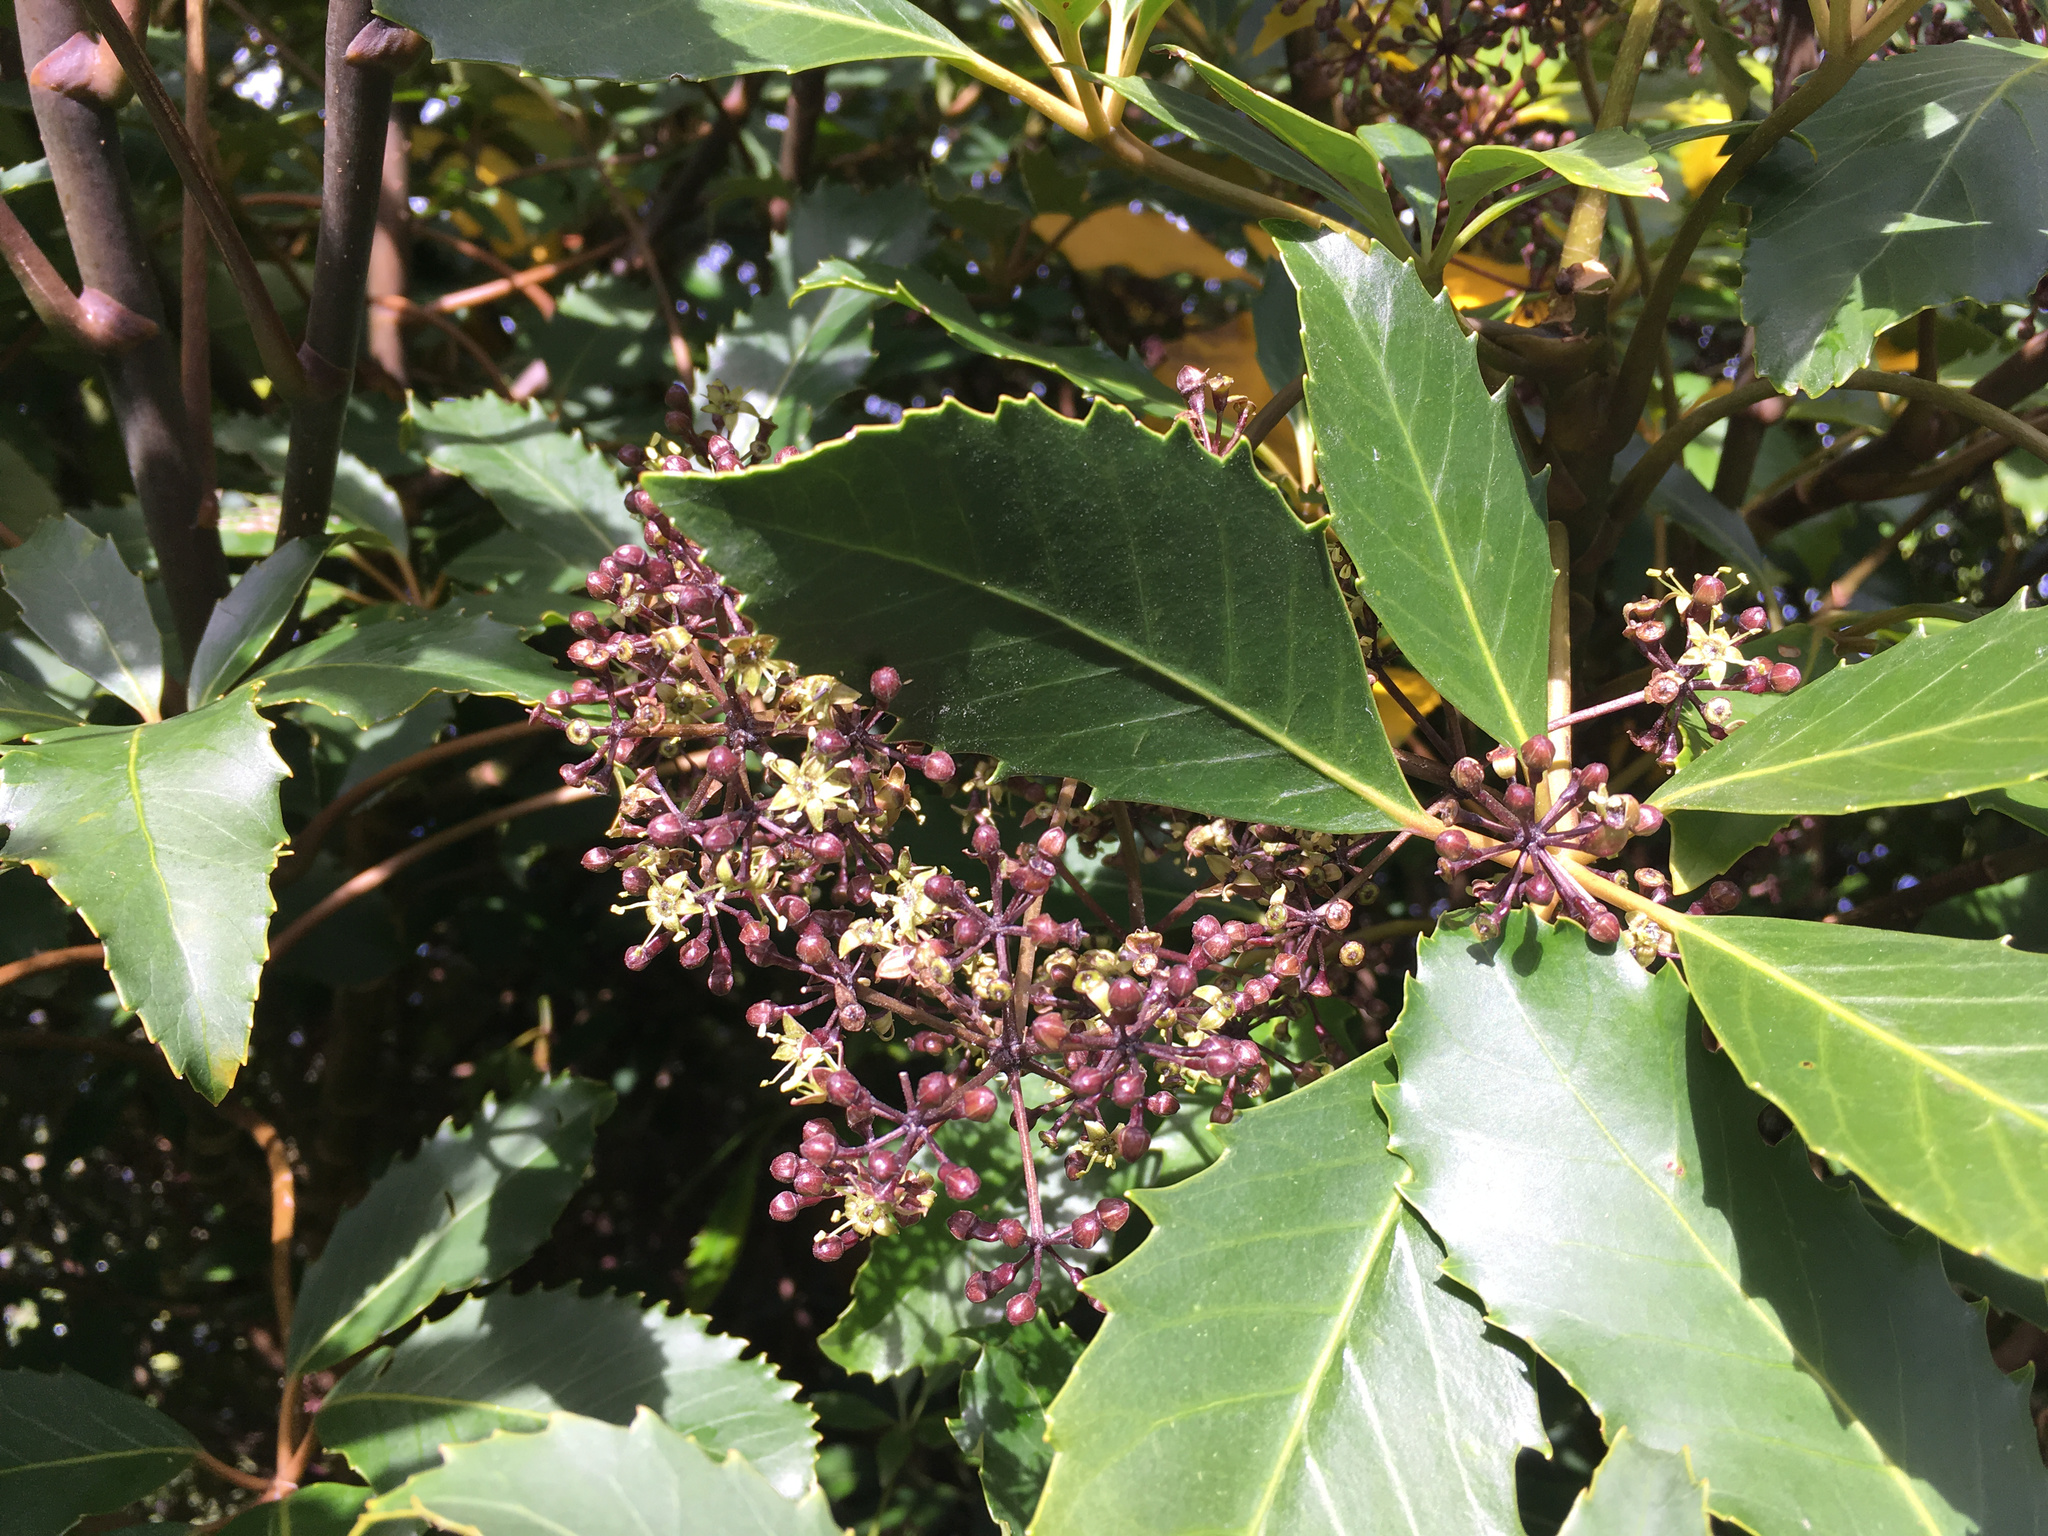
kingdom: Plantae
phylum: Tracheophyta
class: Magnoliopsida
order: Apiales
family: Araliaceae
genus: Neopanax
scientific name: Neopanax arboreus
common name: Five-fingers
